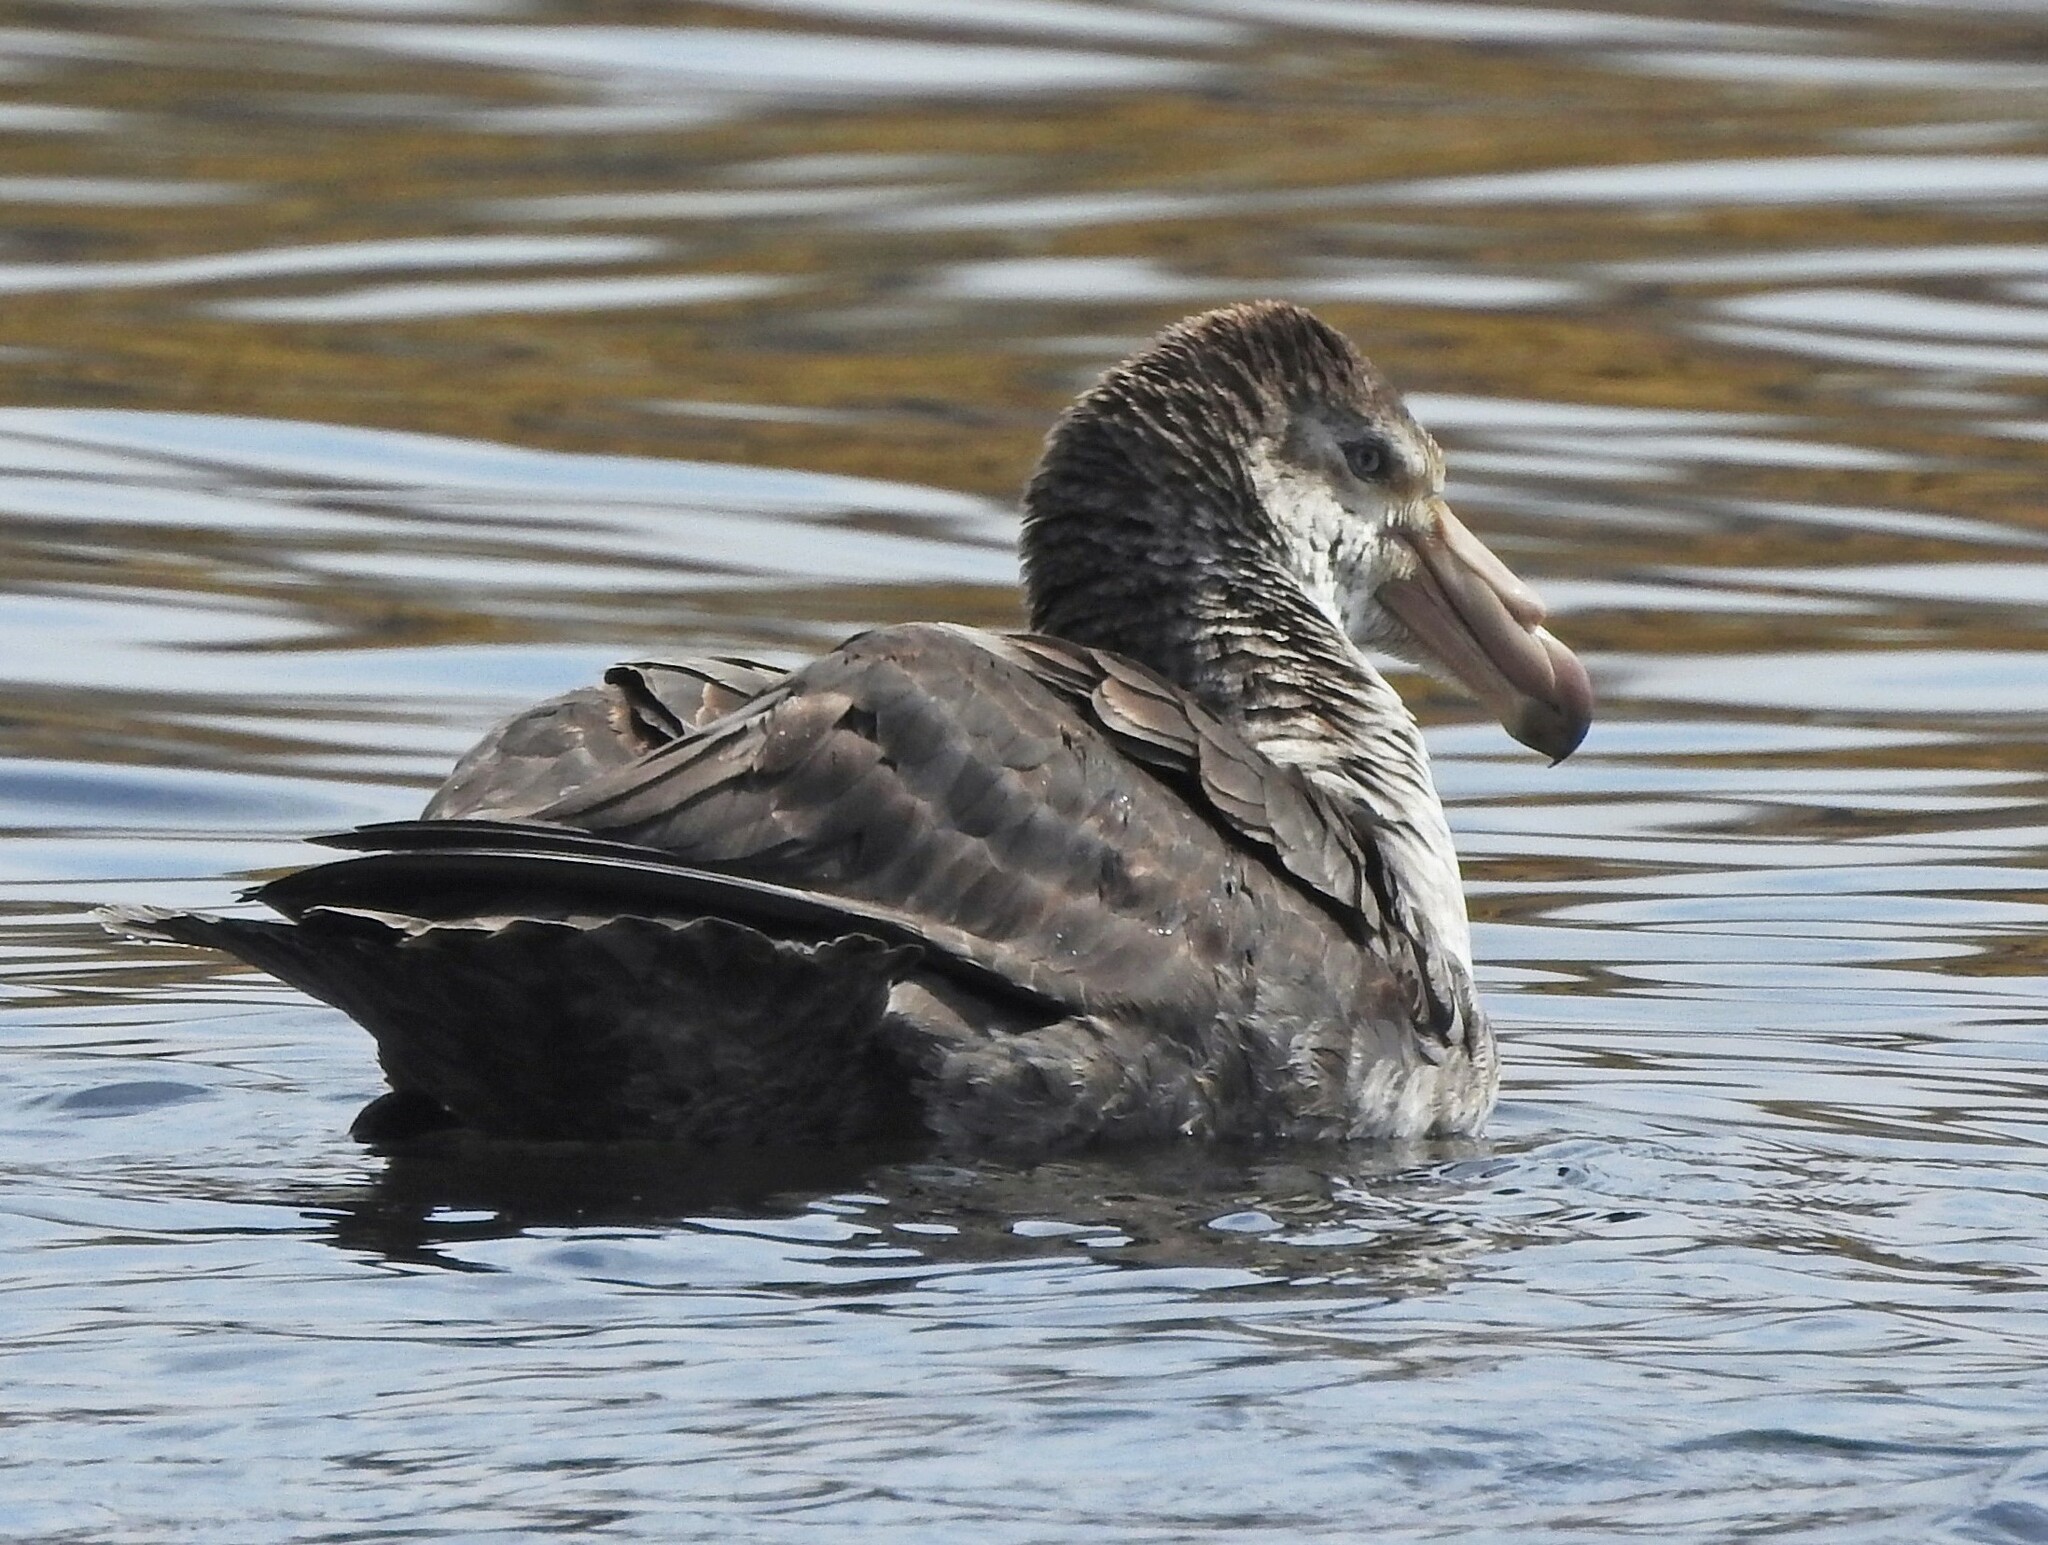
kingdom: Animalia
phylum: Chordata
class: Aves
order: Procellariiformes
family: Procellariidae
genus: Macronectes
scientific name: Macronectes halli
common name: Northern giant petrel
